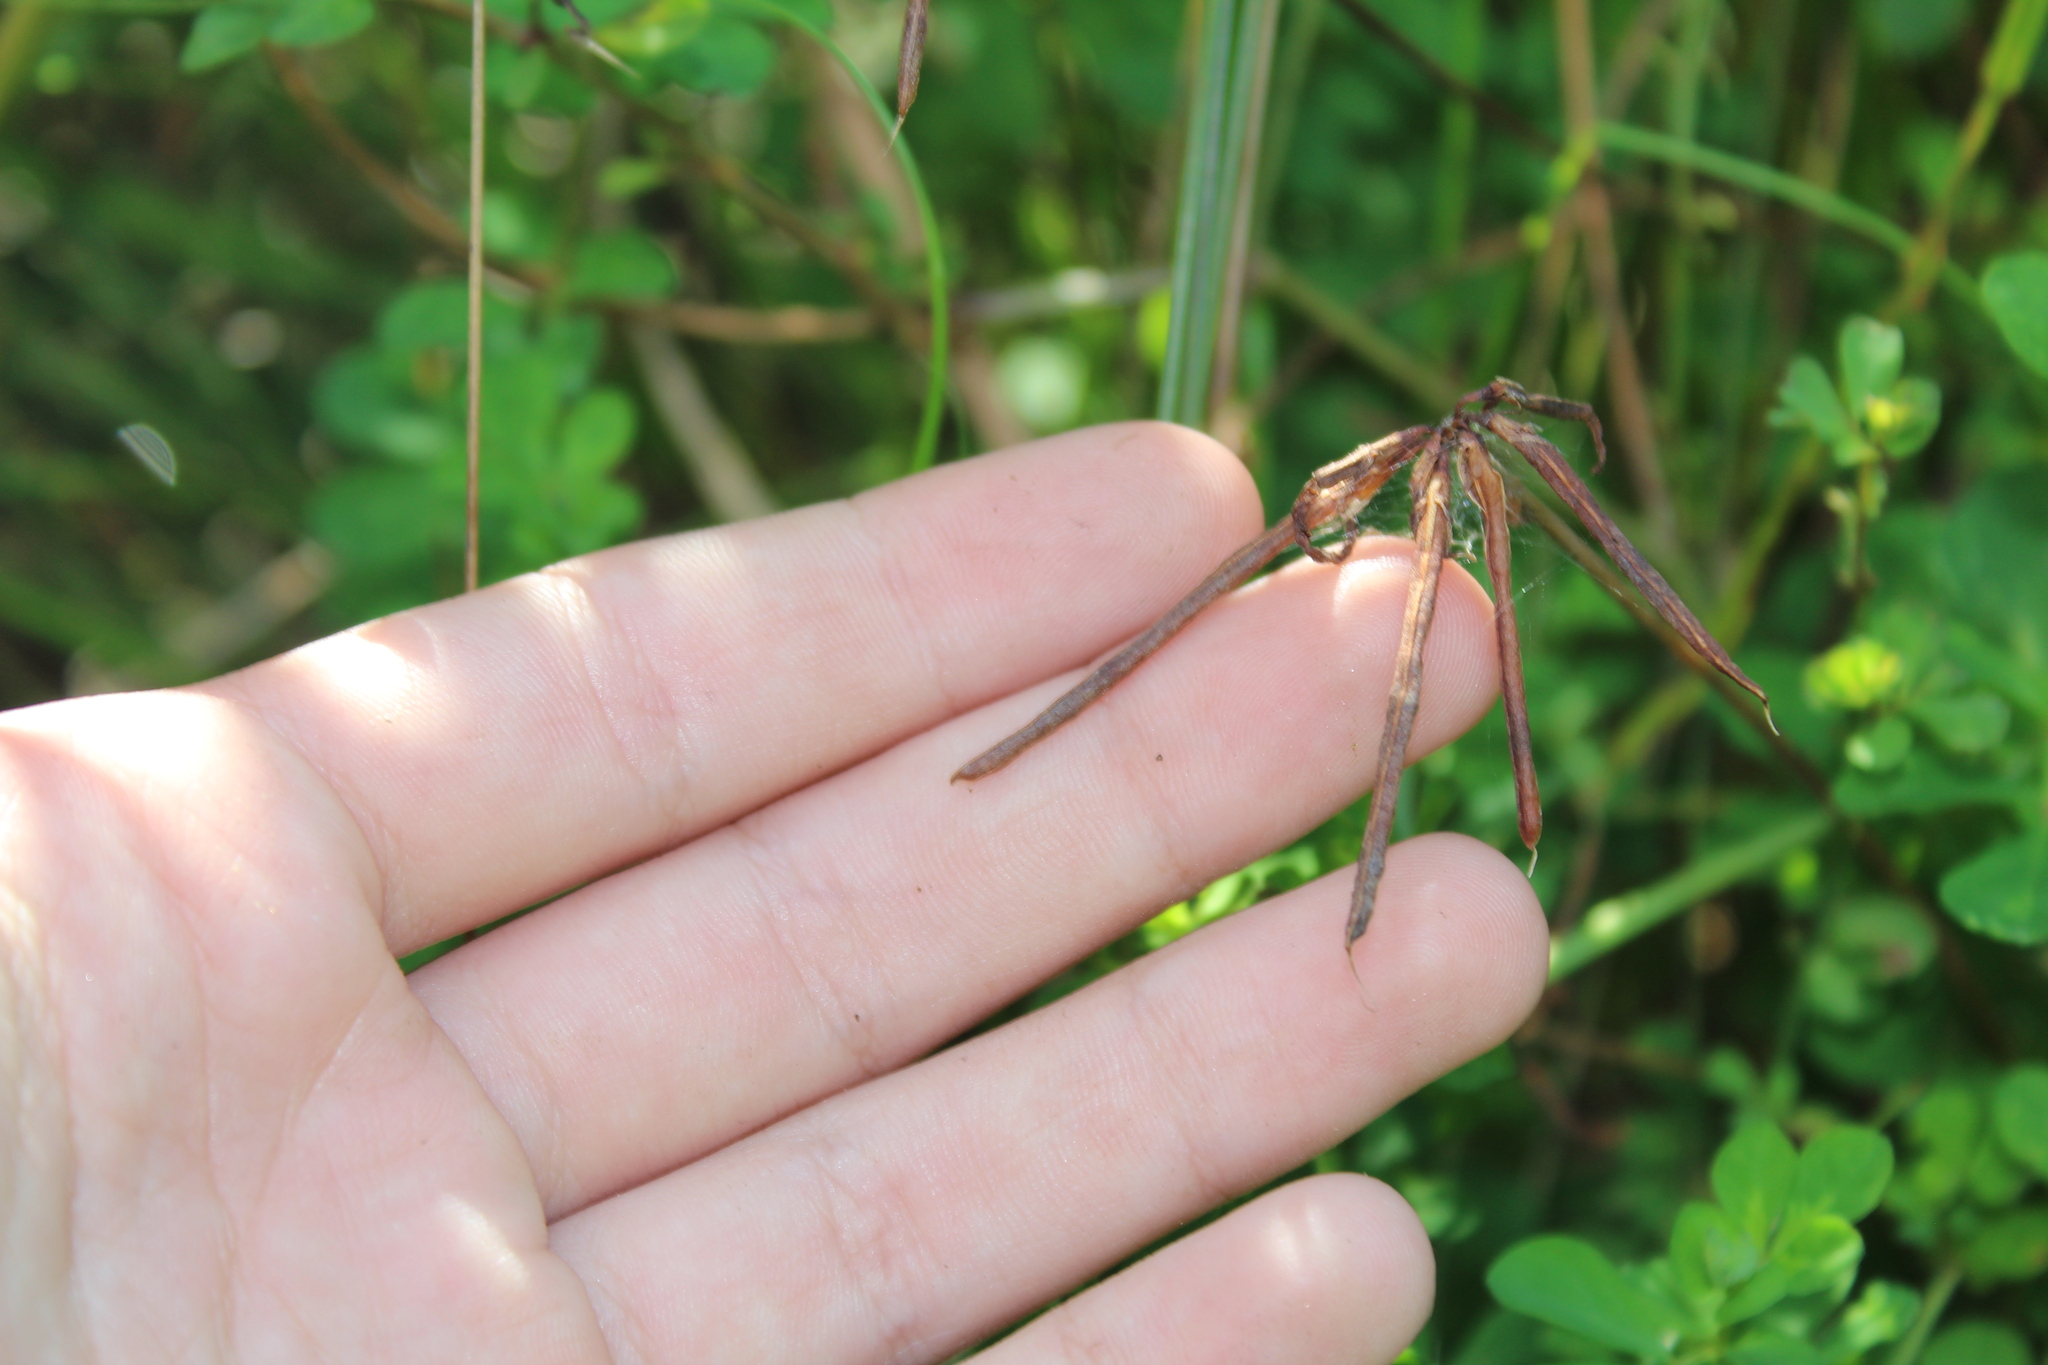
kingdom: Plantae
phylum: Tracheophyta
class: Magnoliopsida
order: Fabales
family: Fabaceae
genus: Lotus
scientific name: Lotus corniculatus
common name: Common bird's-foot-trefoil
